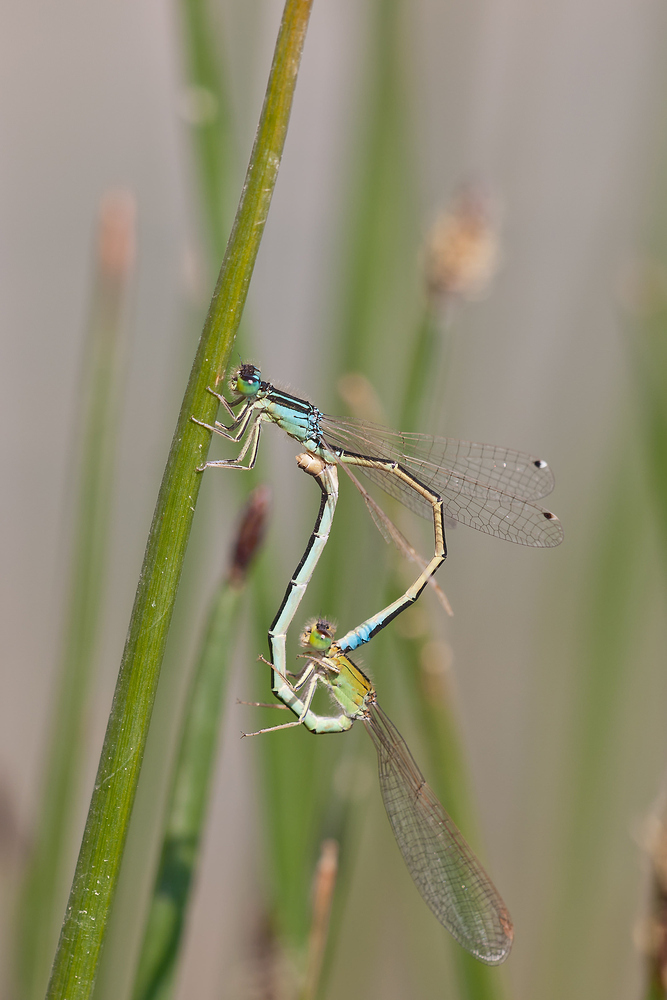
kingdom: Animalia
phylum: Arthropoda
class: Insecta
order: Odonata
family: Coenagrionidae
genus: Ischnura
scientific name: Ischnura graellsii
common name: Iberian bluetail
